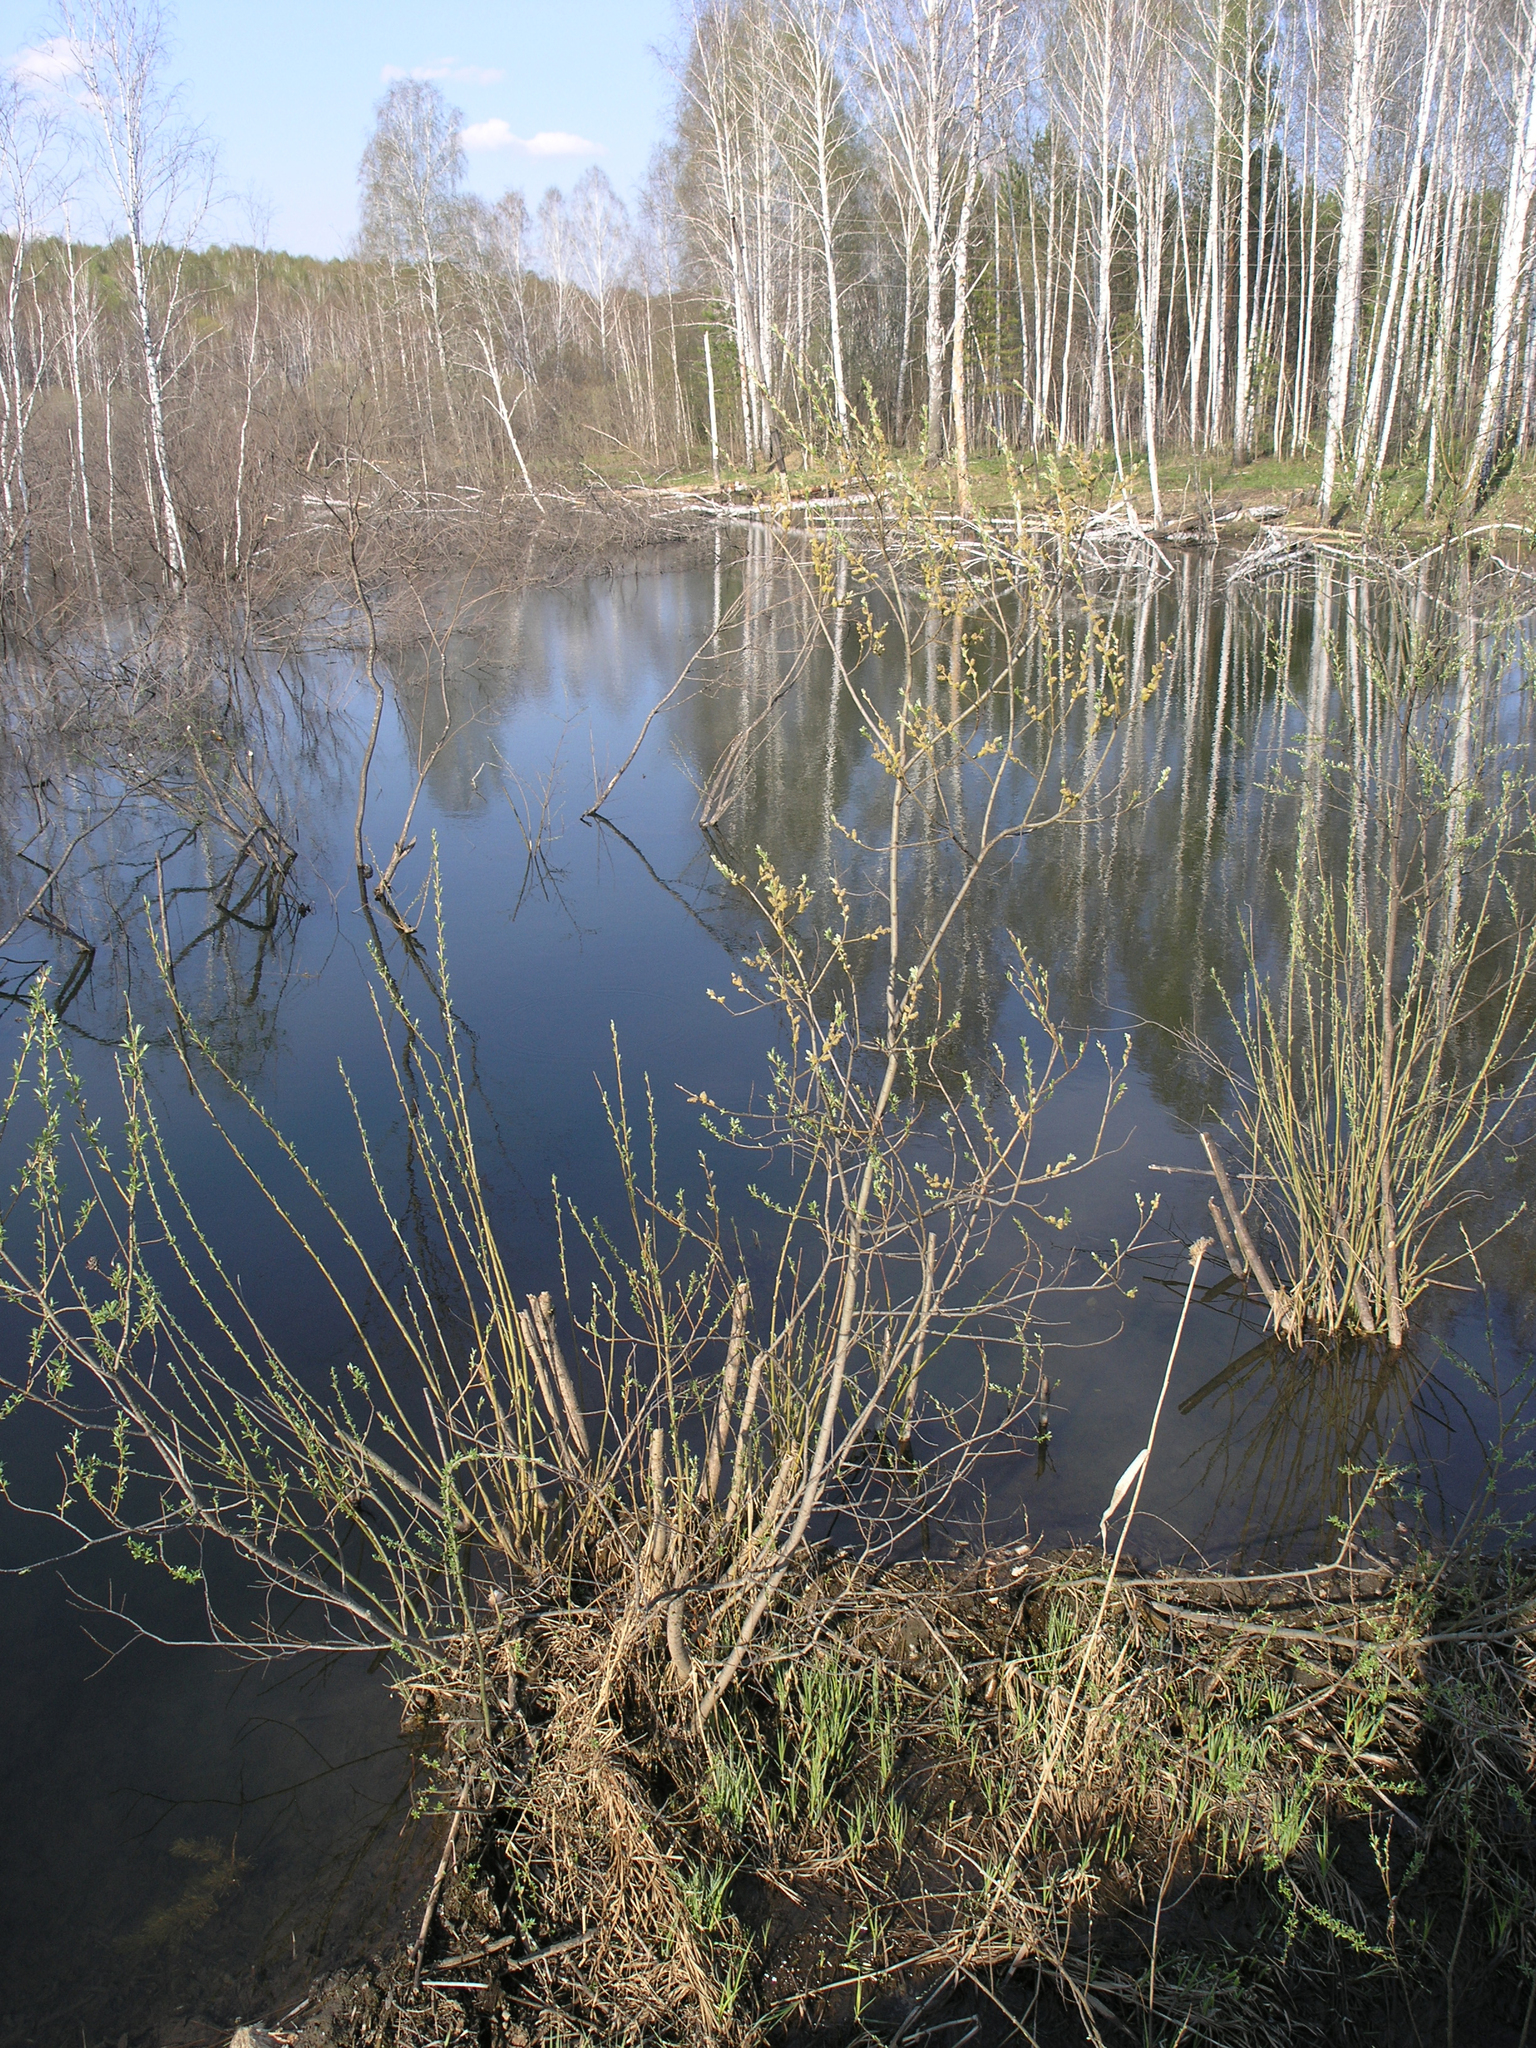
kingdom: Plantae
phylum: Tracheophyta
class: Magnoliopsida
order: Fagales
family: Betulaceae
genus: Betula
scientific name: Betula pendula
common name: Silver birch
